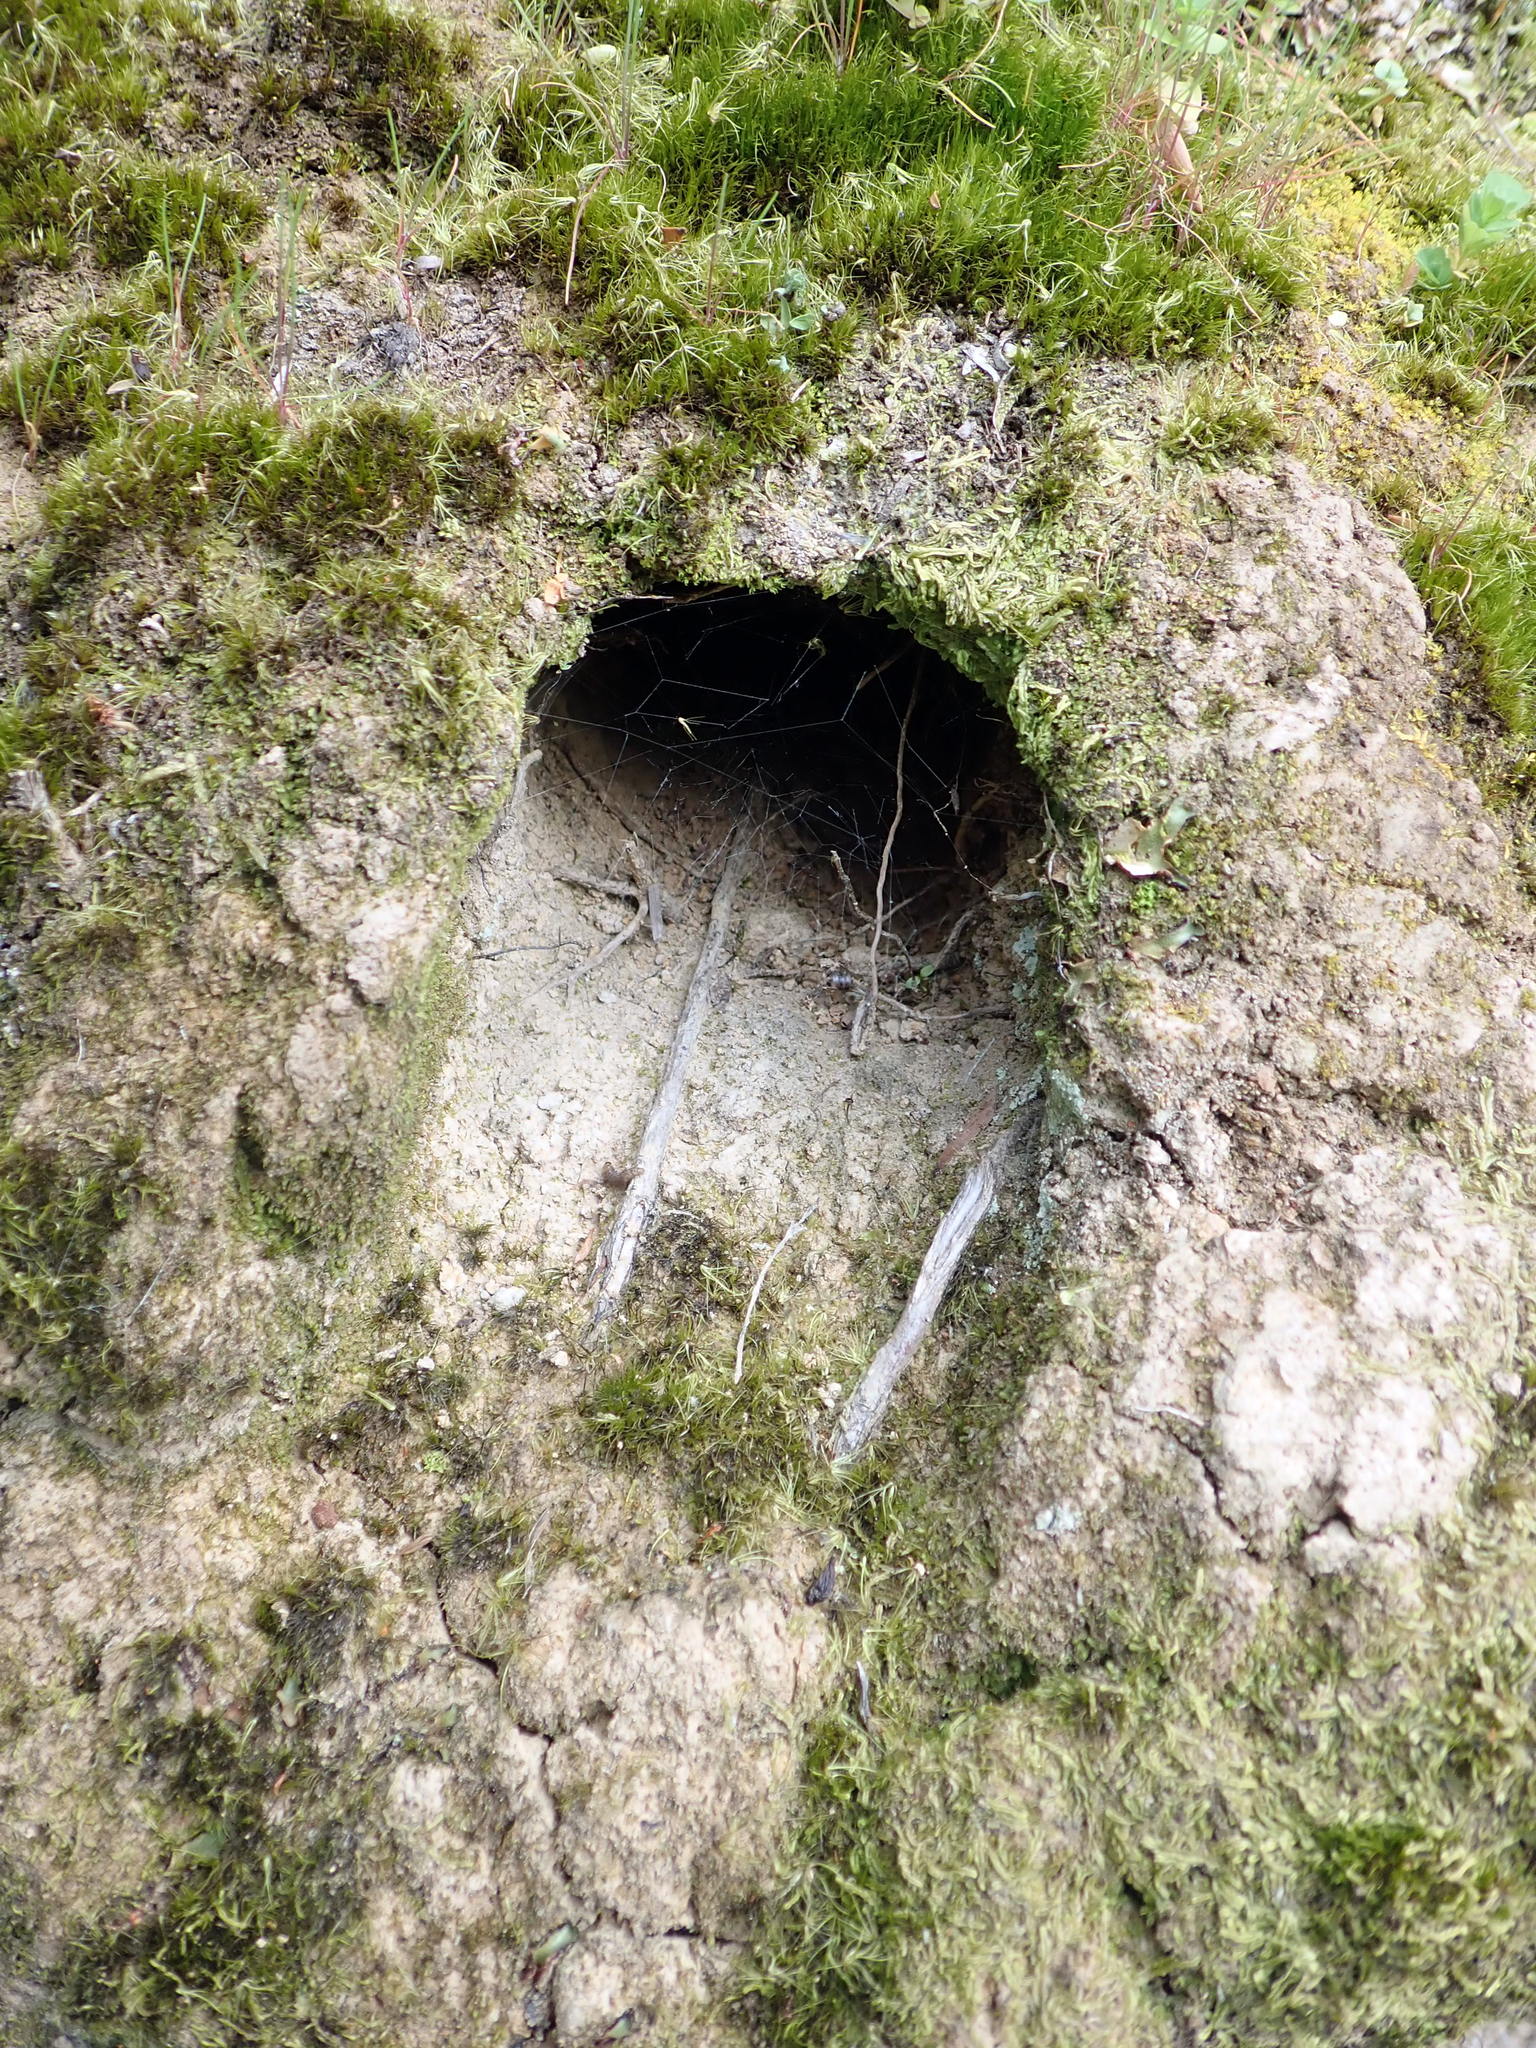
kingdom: Animalia
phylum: Chordata
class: Aves
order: Coraciiformes
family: Alcedinidae
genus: Todiramphus
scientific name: Todiramphus sanctus
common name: Sacred kingfisher
